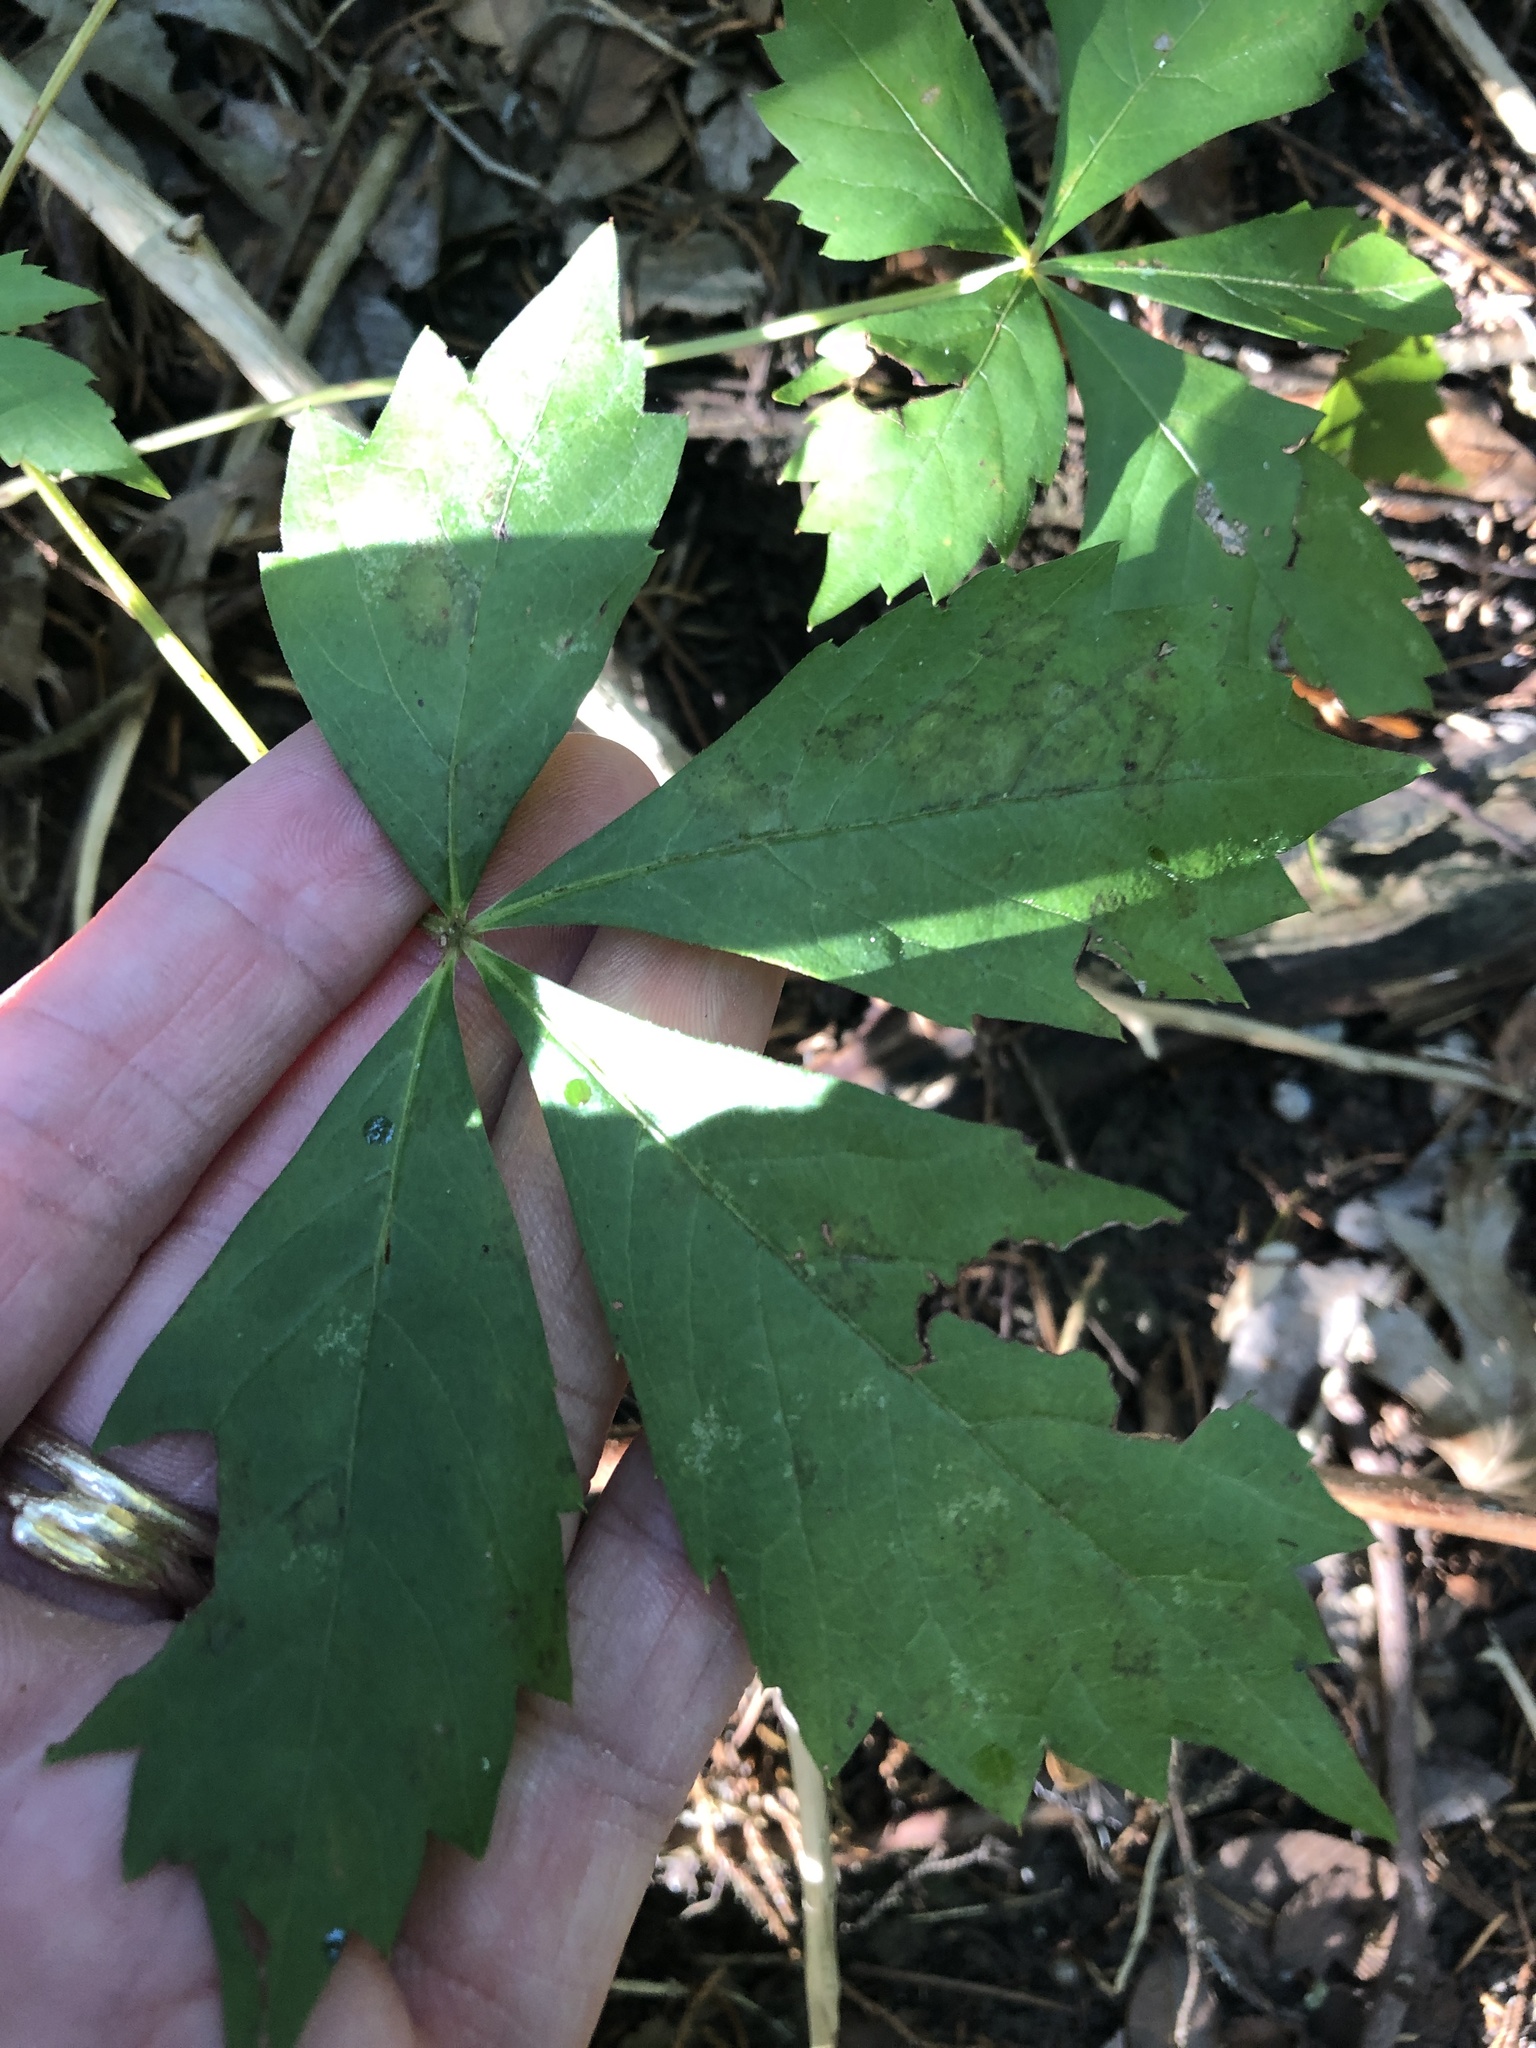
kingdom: Plantae
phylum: Tracheophyta
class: Magnoliopsida
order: Vitales
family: Vitaceae
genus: Parthenocissus
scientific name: Parthenocissus quinquefolia
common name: Virginia-creeper
